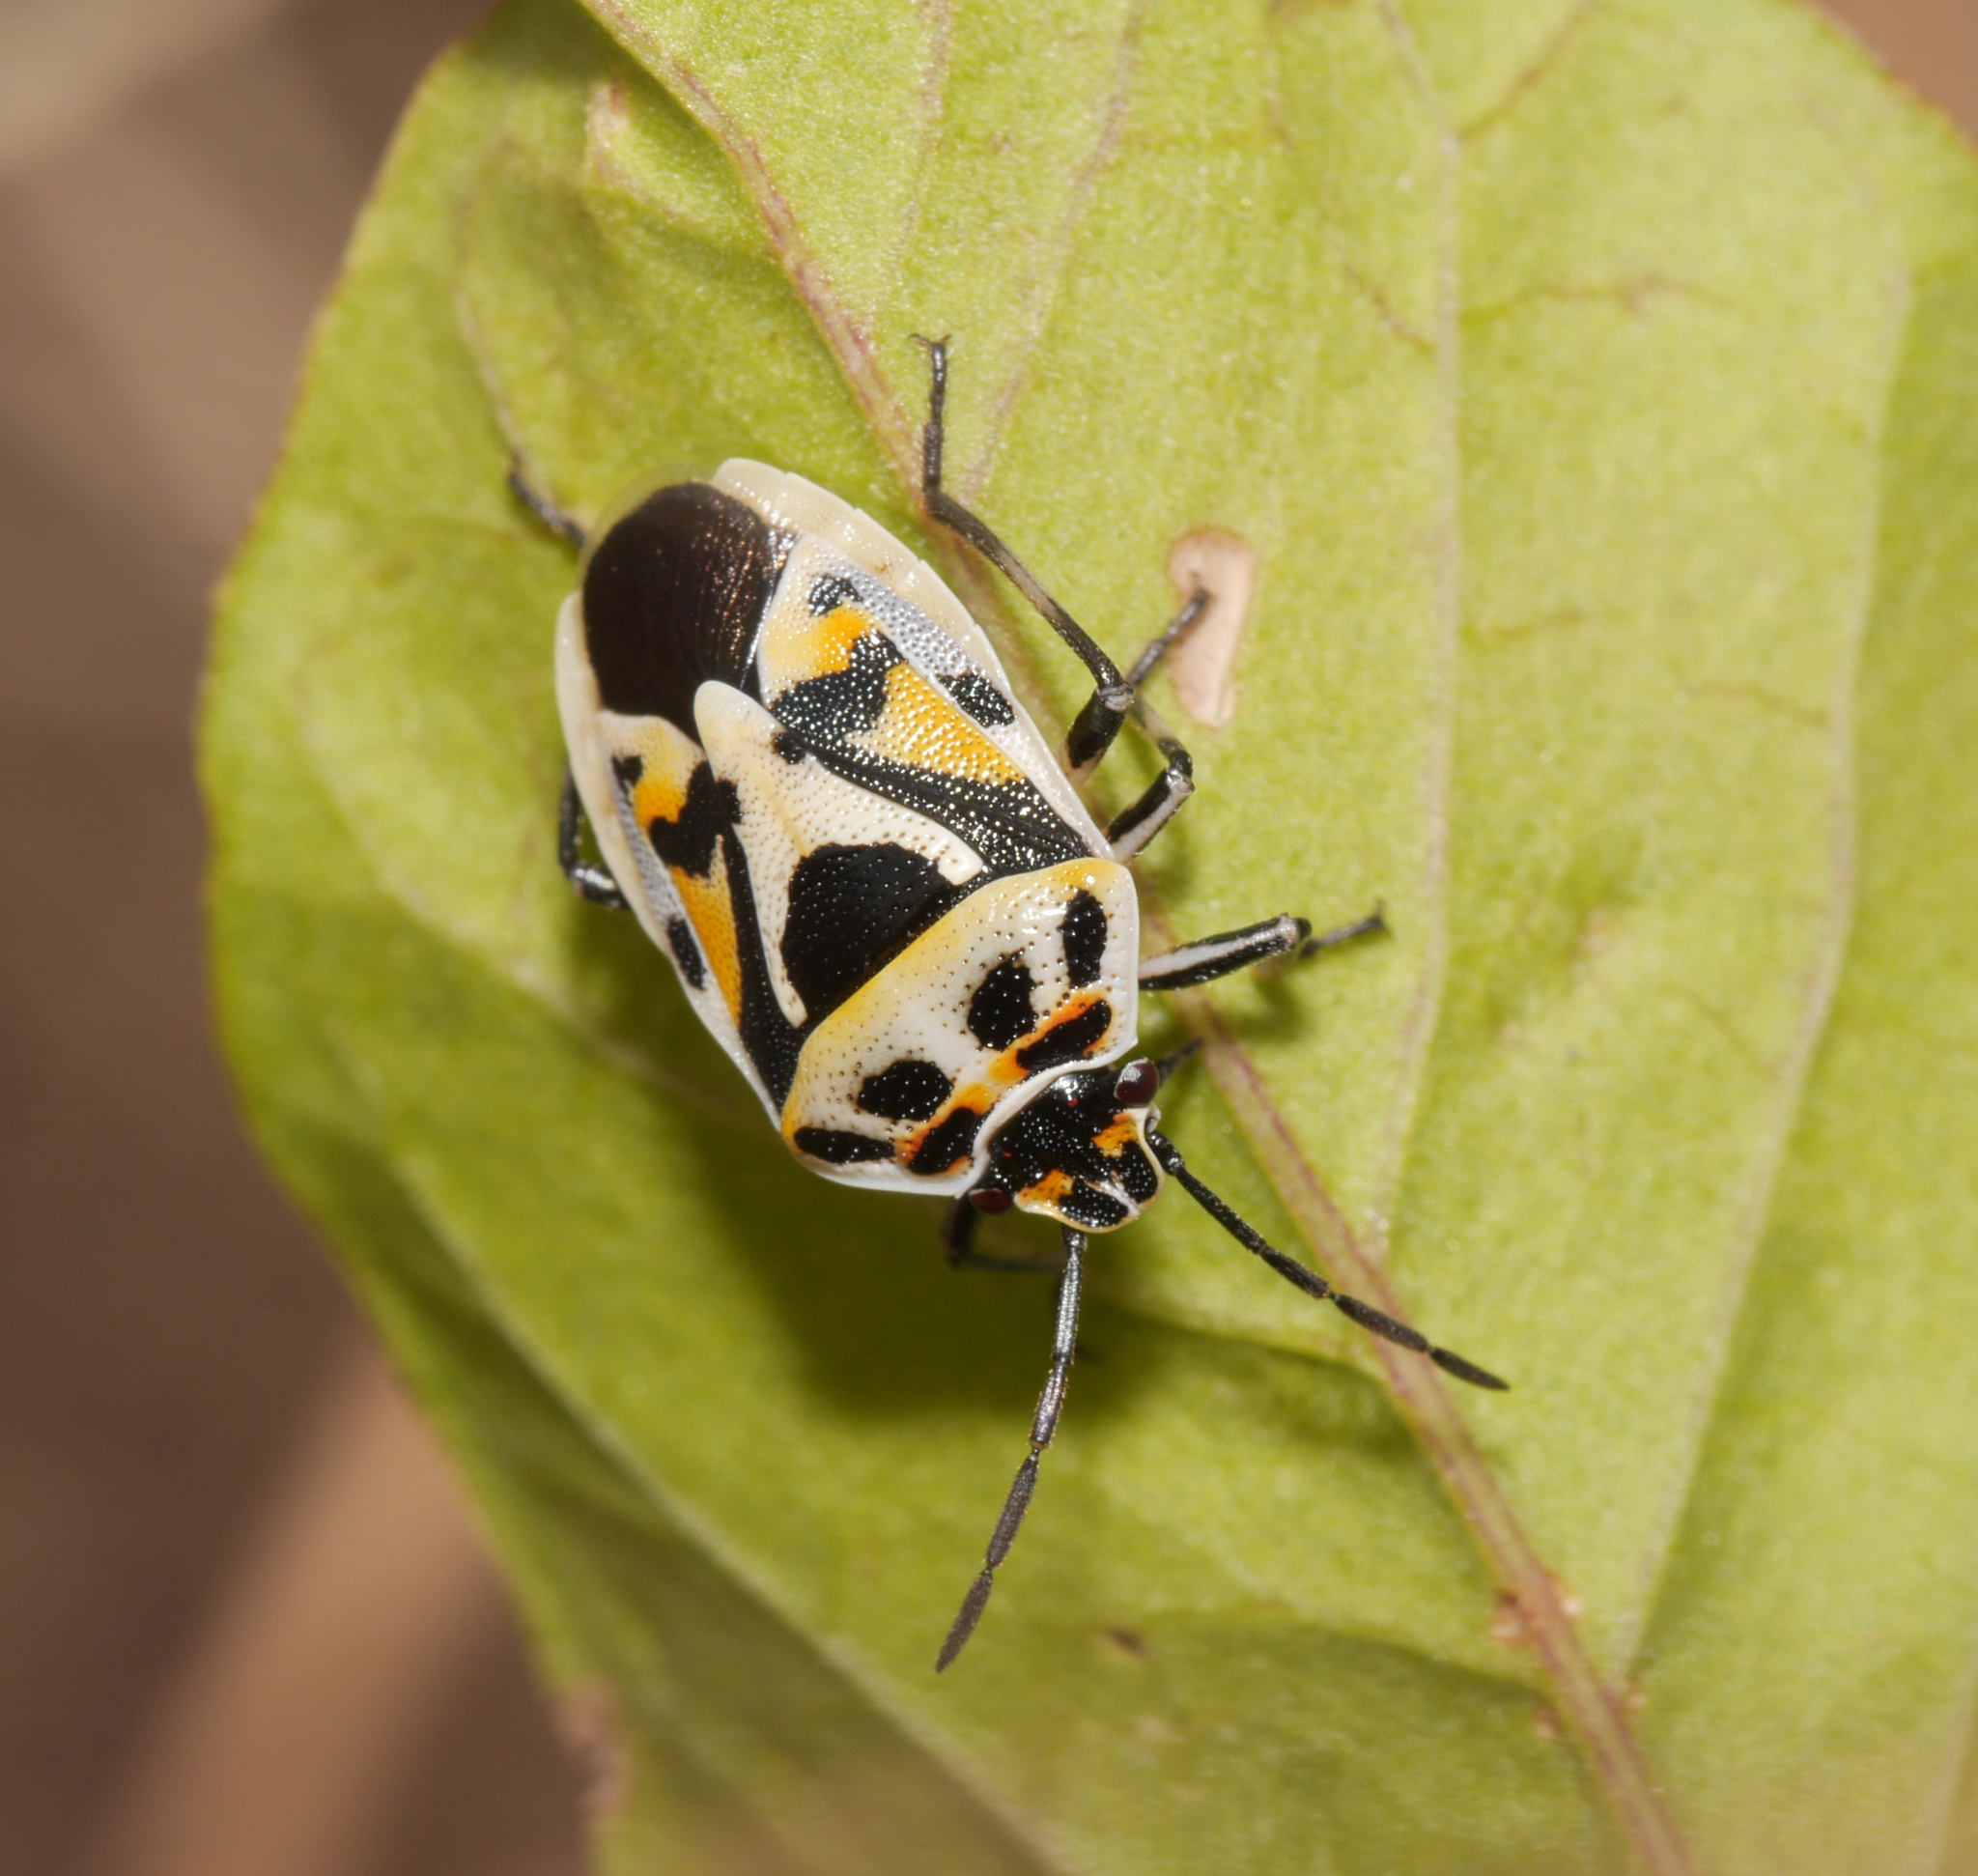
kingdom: Animalia
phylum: Arthropoda
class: Insecta
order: Hemiptera
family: Pentatomidae
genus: Eurydema
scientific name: Eurydema ornata
